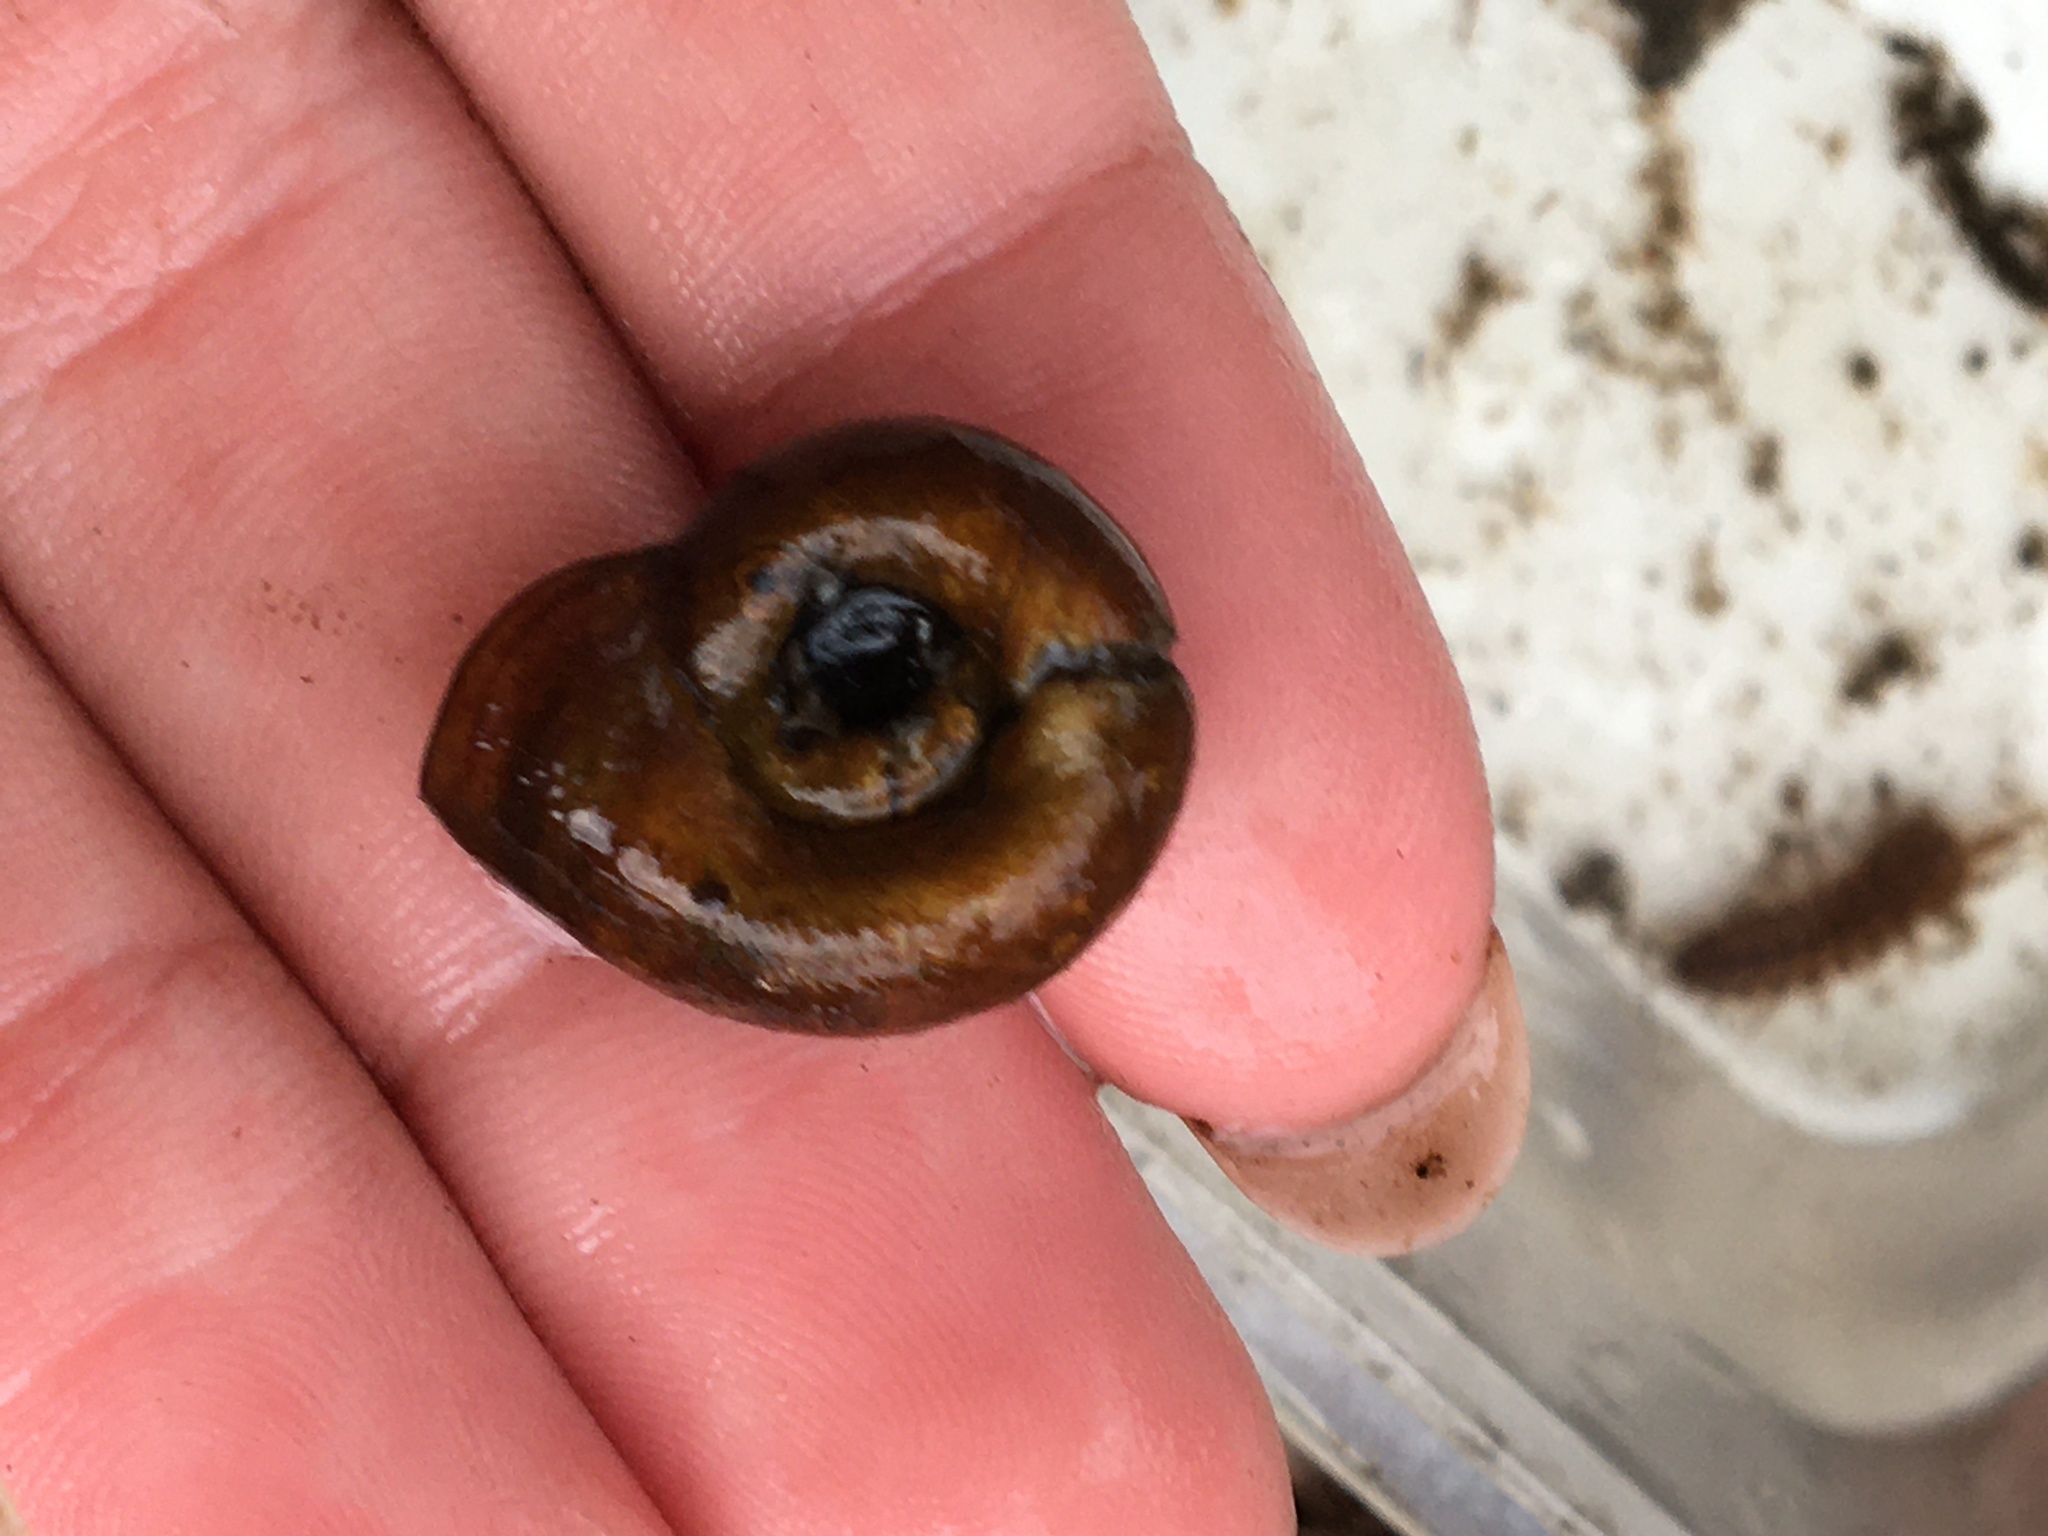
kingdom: Animalia
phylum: Mollusca
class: Gastropoda
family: Planorbidae
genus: Planorbella
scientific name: Planorbella trivolvis
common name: Marsh rams-horn
